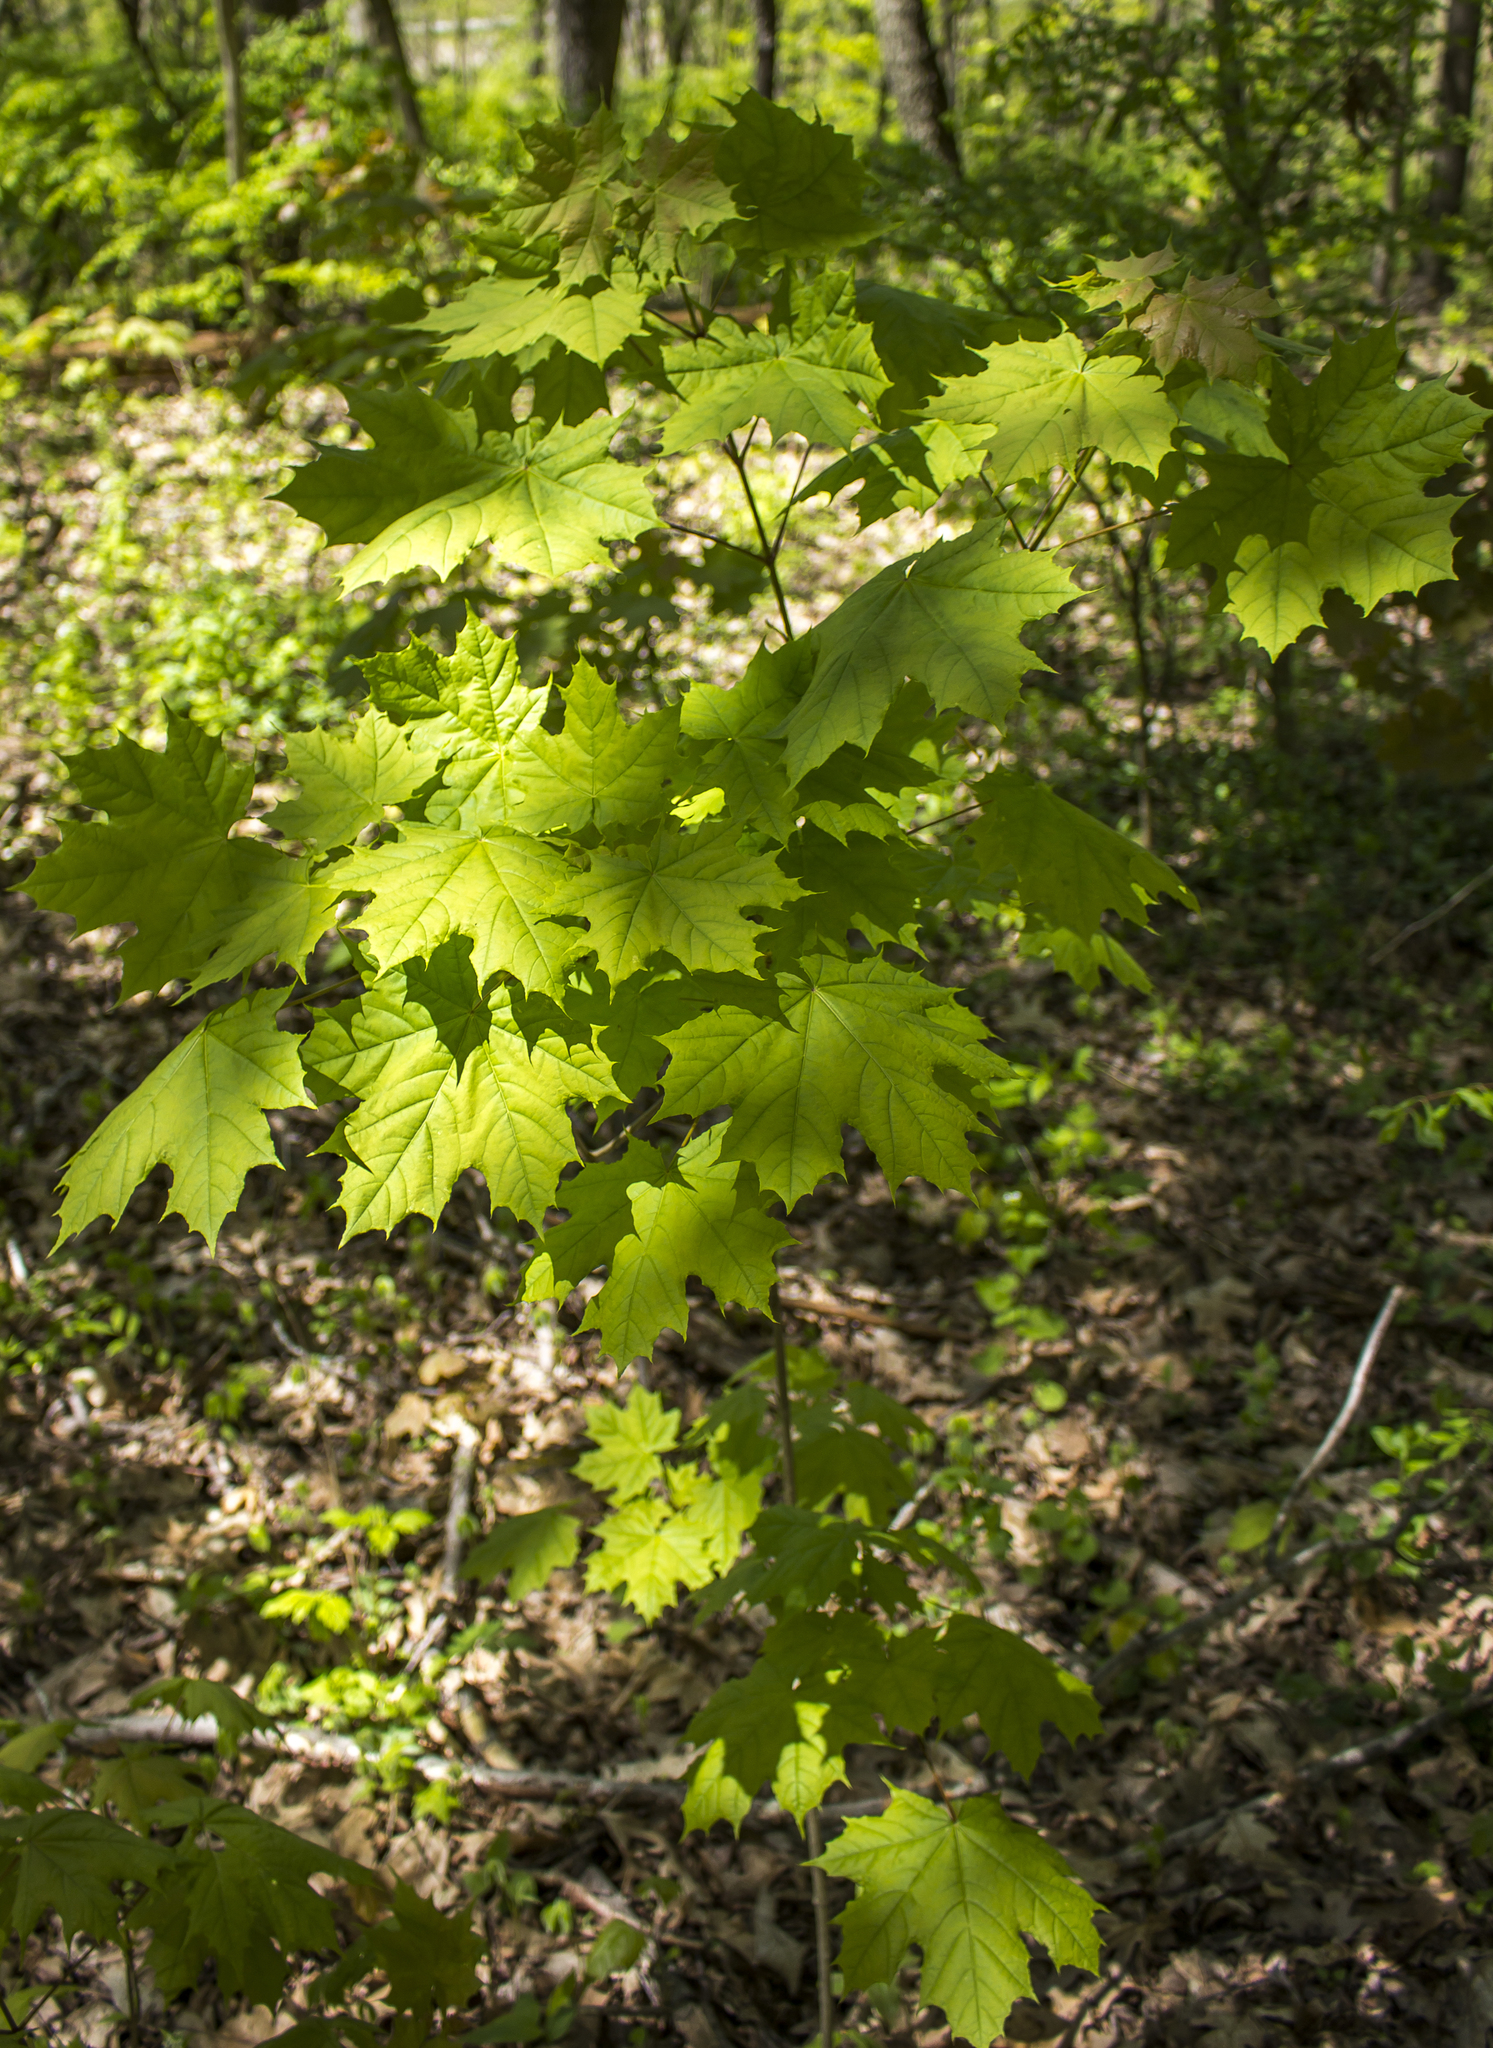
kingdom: Plantae
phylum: Tracheophyta
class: Magnoliopsida
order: Sapindales
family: Sapindaceae
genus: Acer
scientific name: Acer saccharum
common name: Sugar maple
